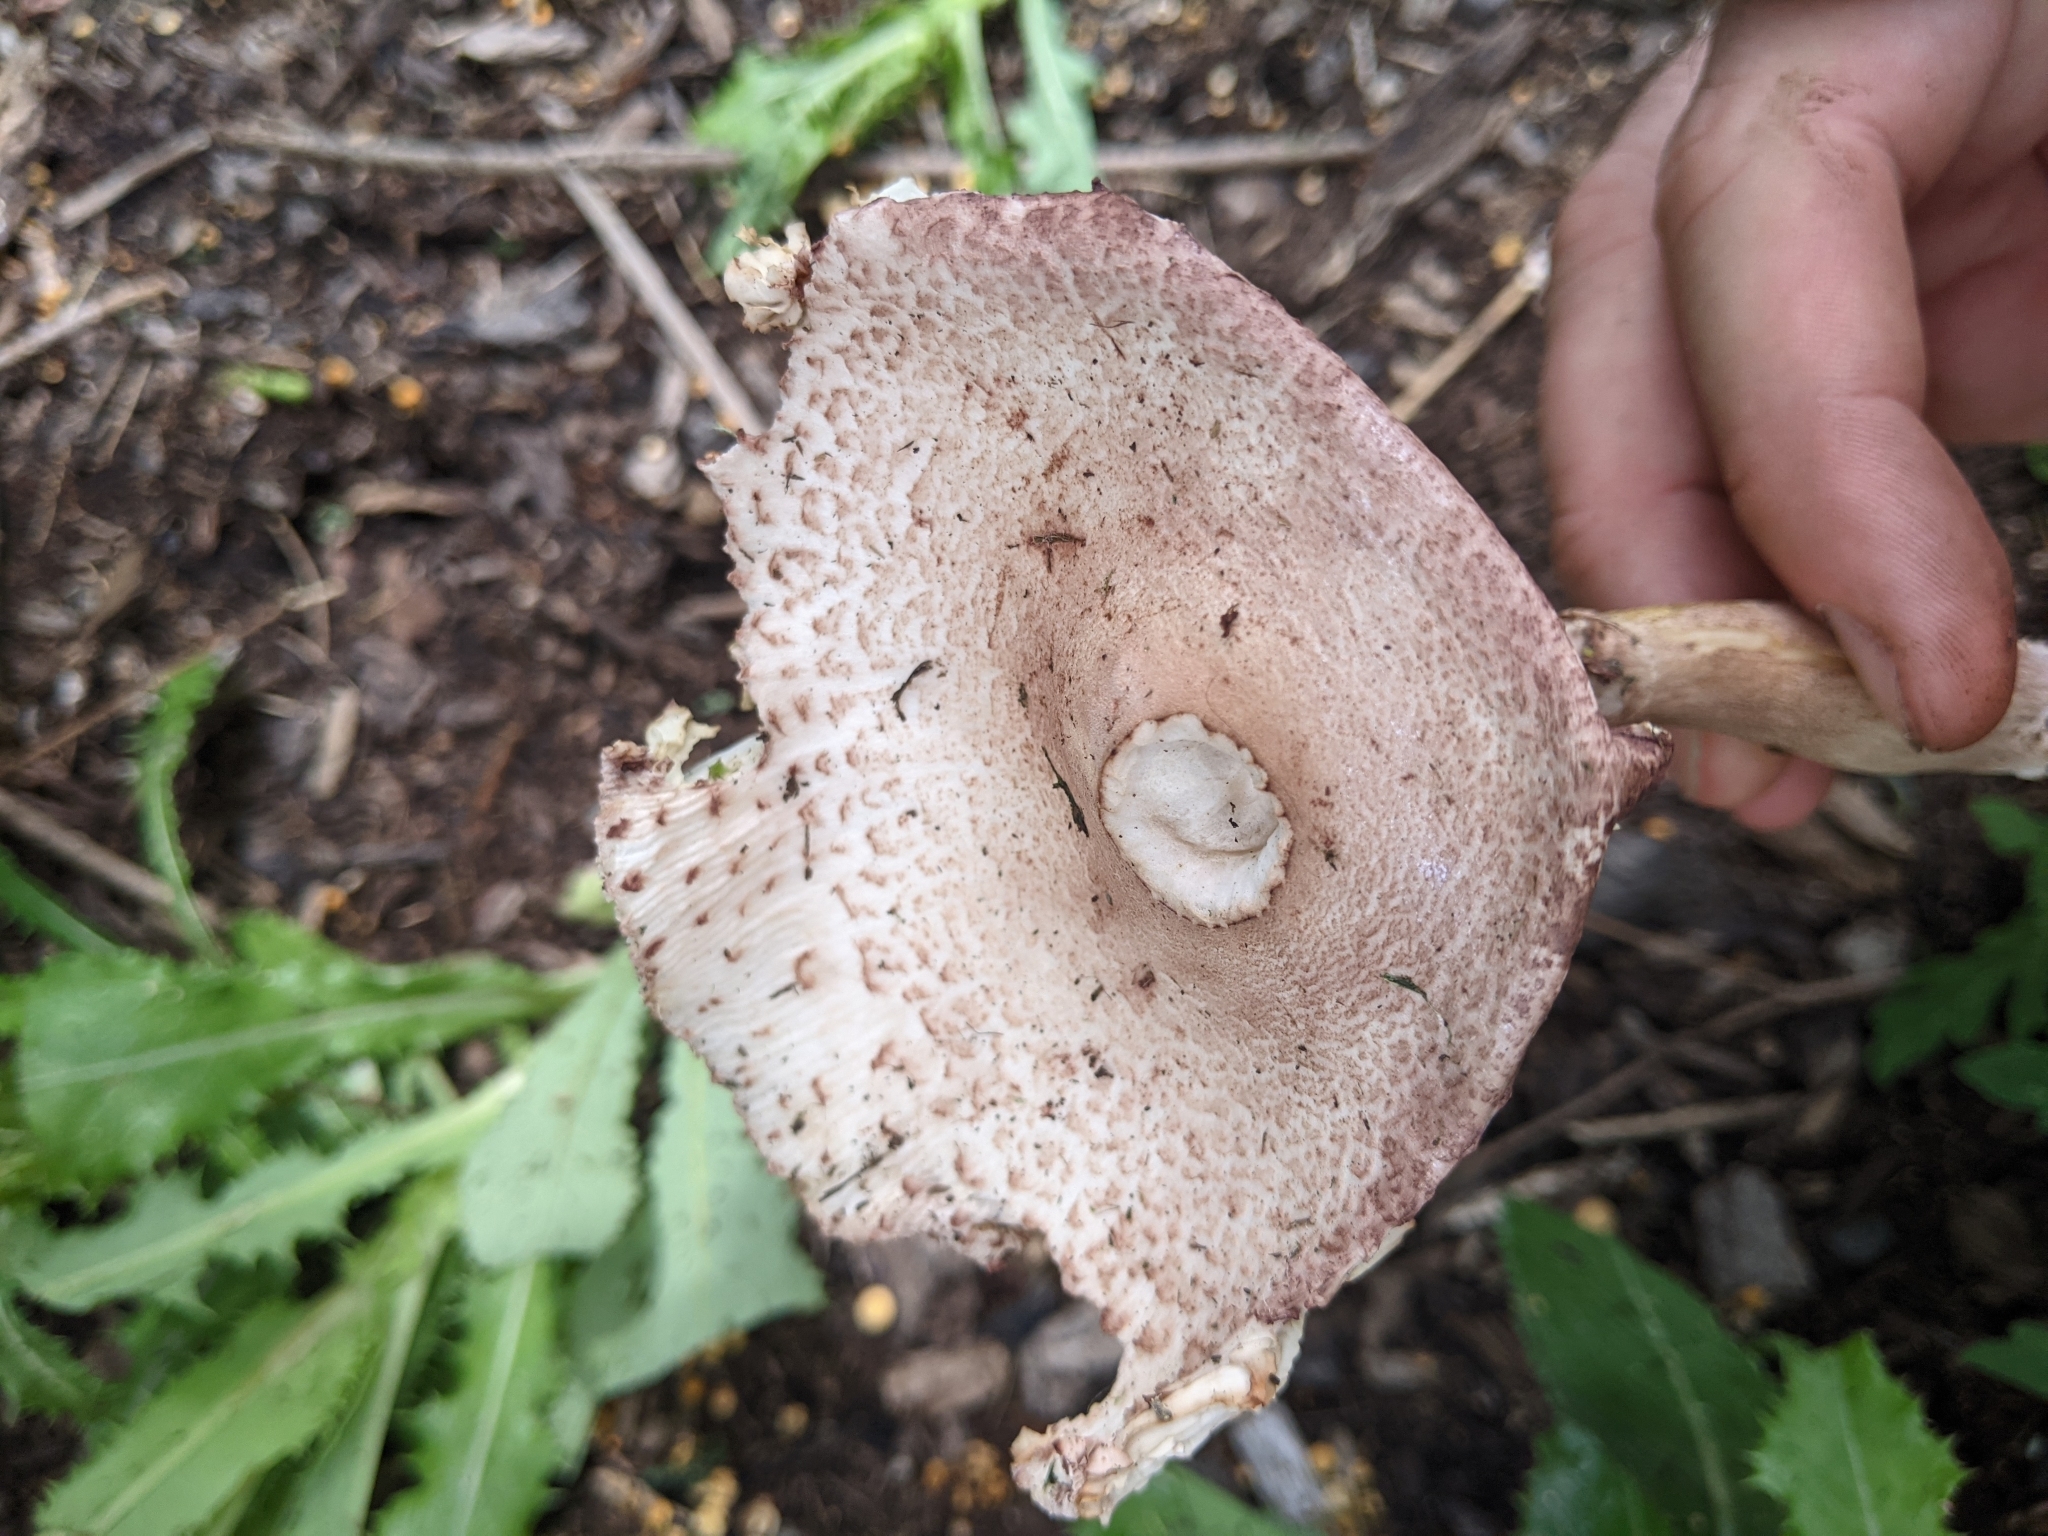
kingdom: Fungi
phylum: Basidiomycota
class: Agaricomycetes
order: Agaricales
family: Agaricaceae
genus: Leucoagaricus
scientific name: Leucoagaricus americanus
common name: Reddening lepiota
